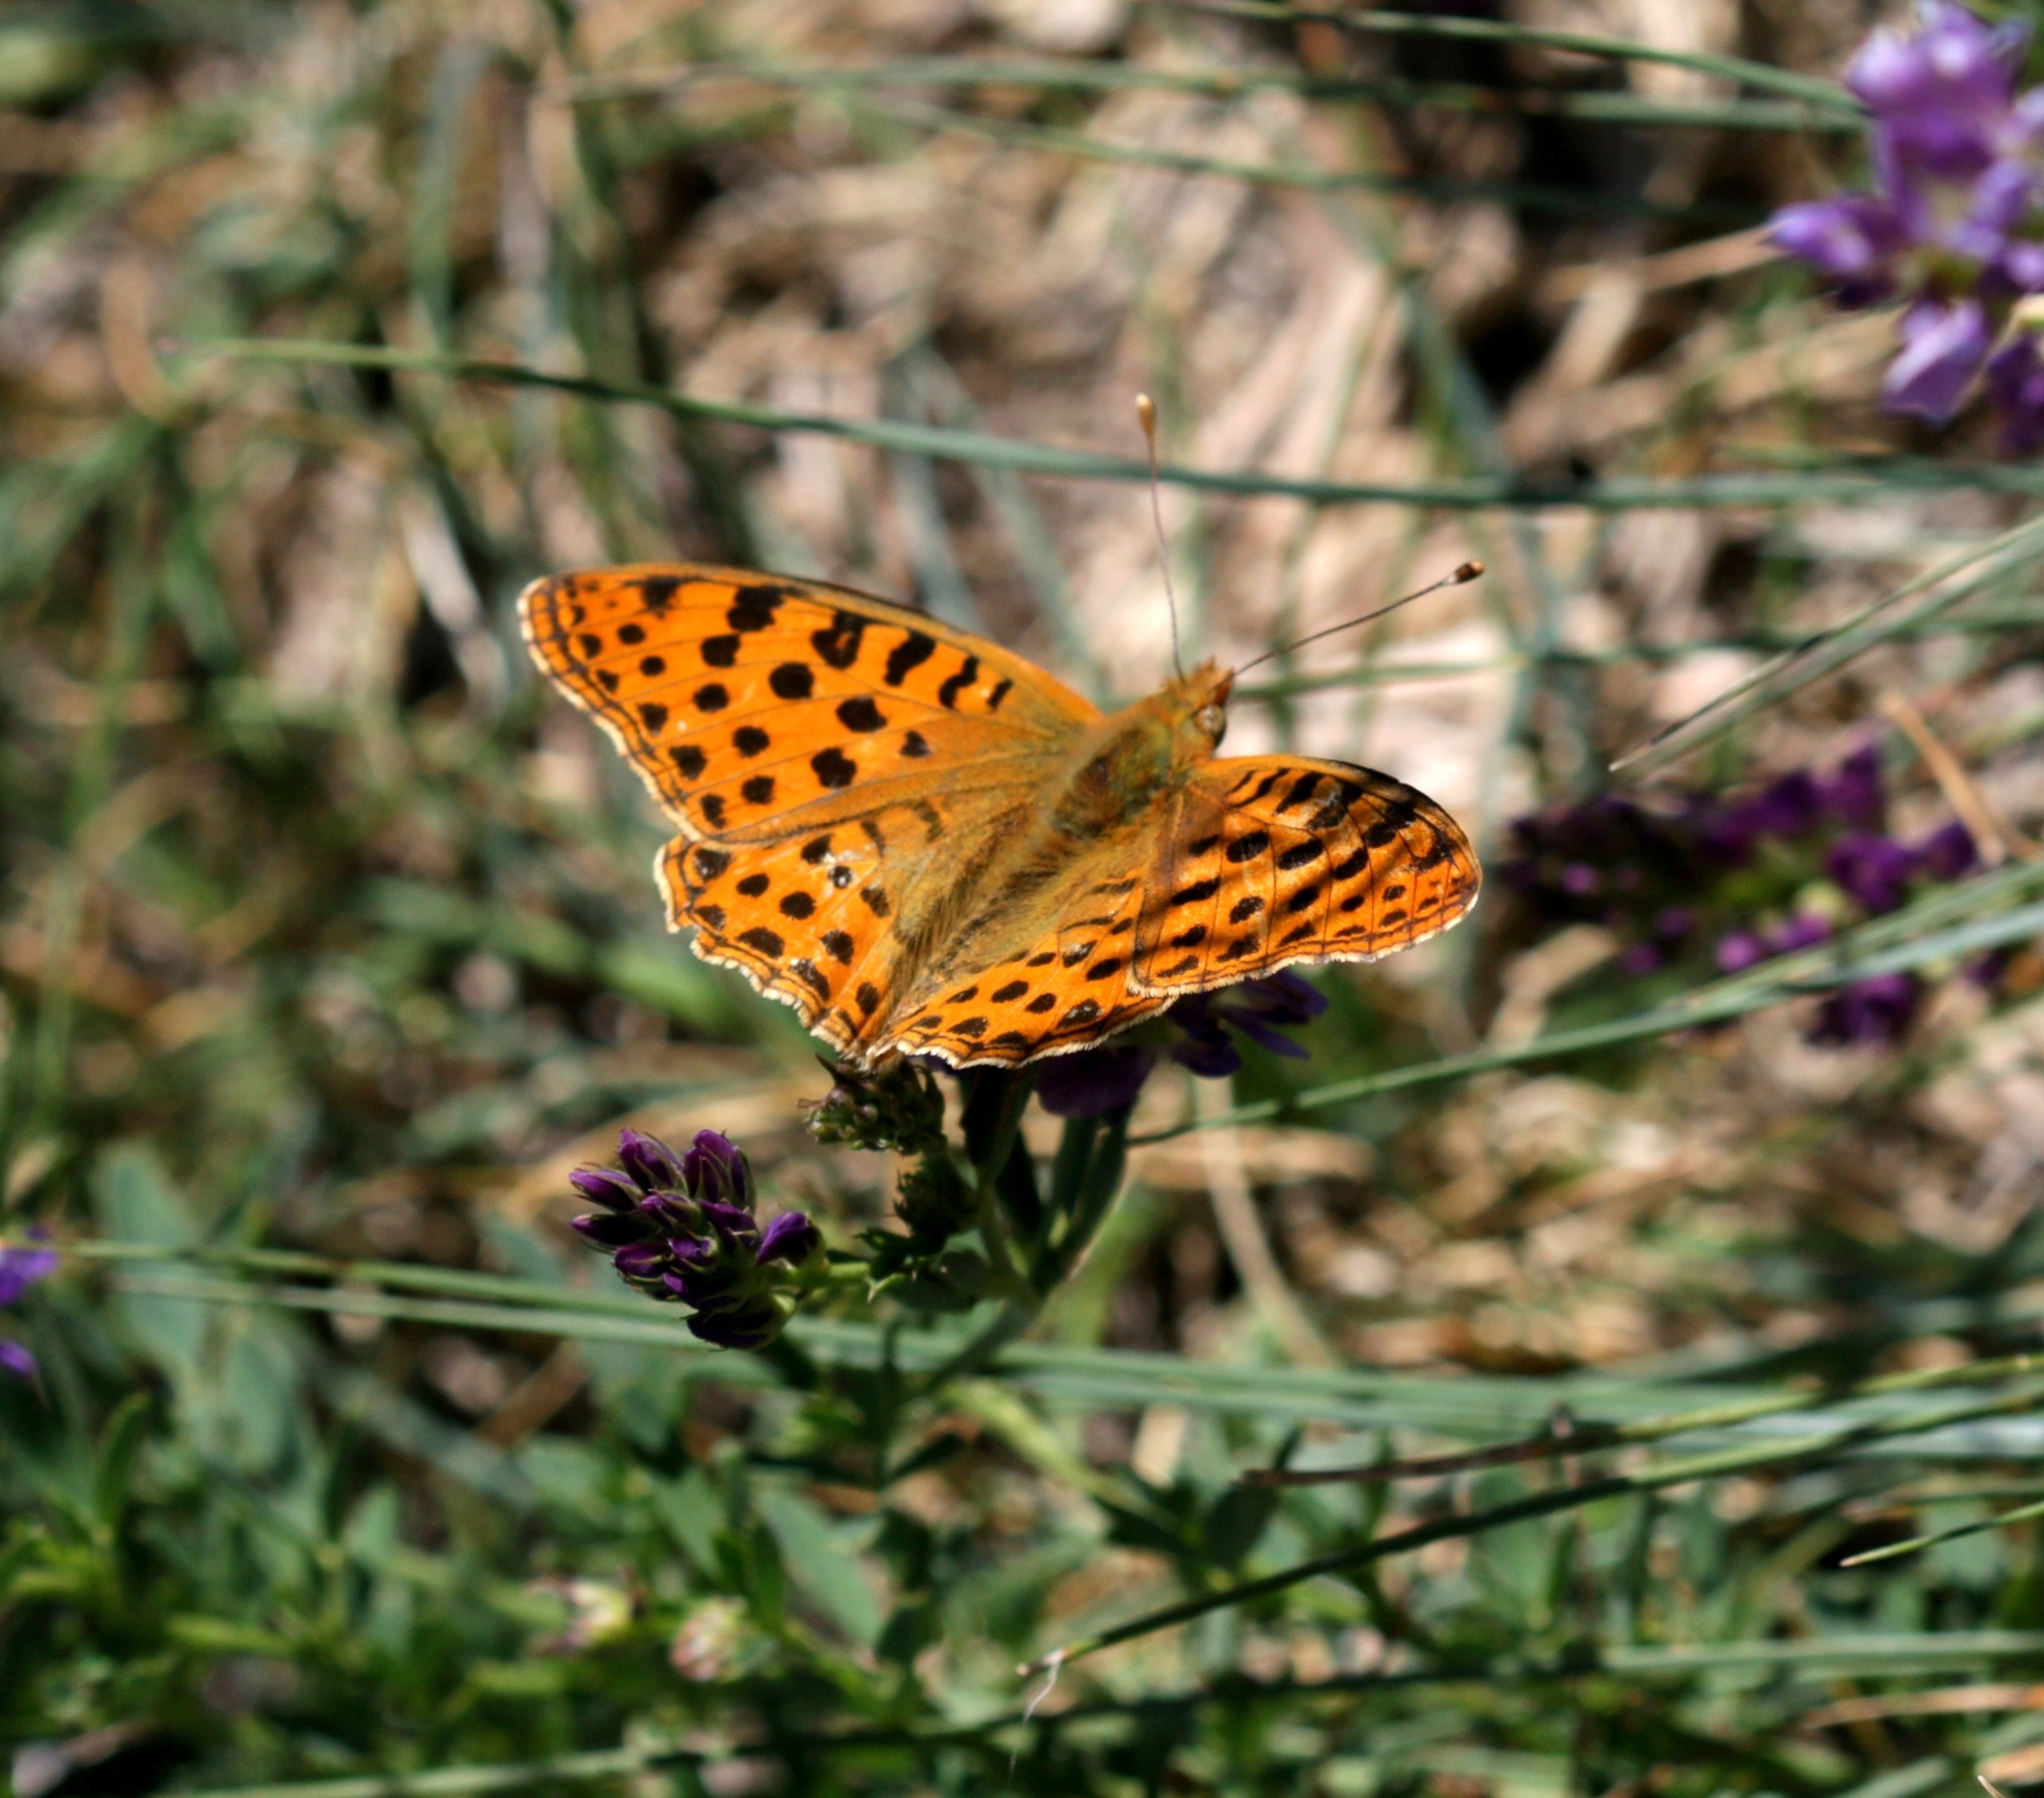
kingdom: Animalia
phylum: Arthropoda
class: Insecta
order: Lepidoptera
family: Nymphalidae
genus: Issoria
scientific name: Issoria lathonia
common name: Queen of spain fritillary
